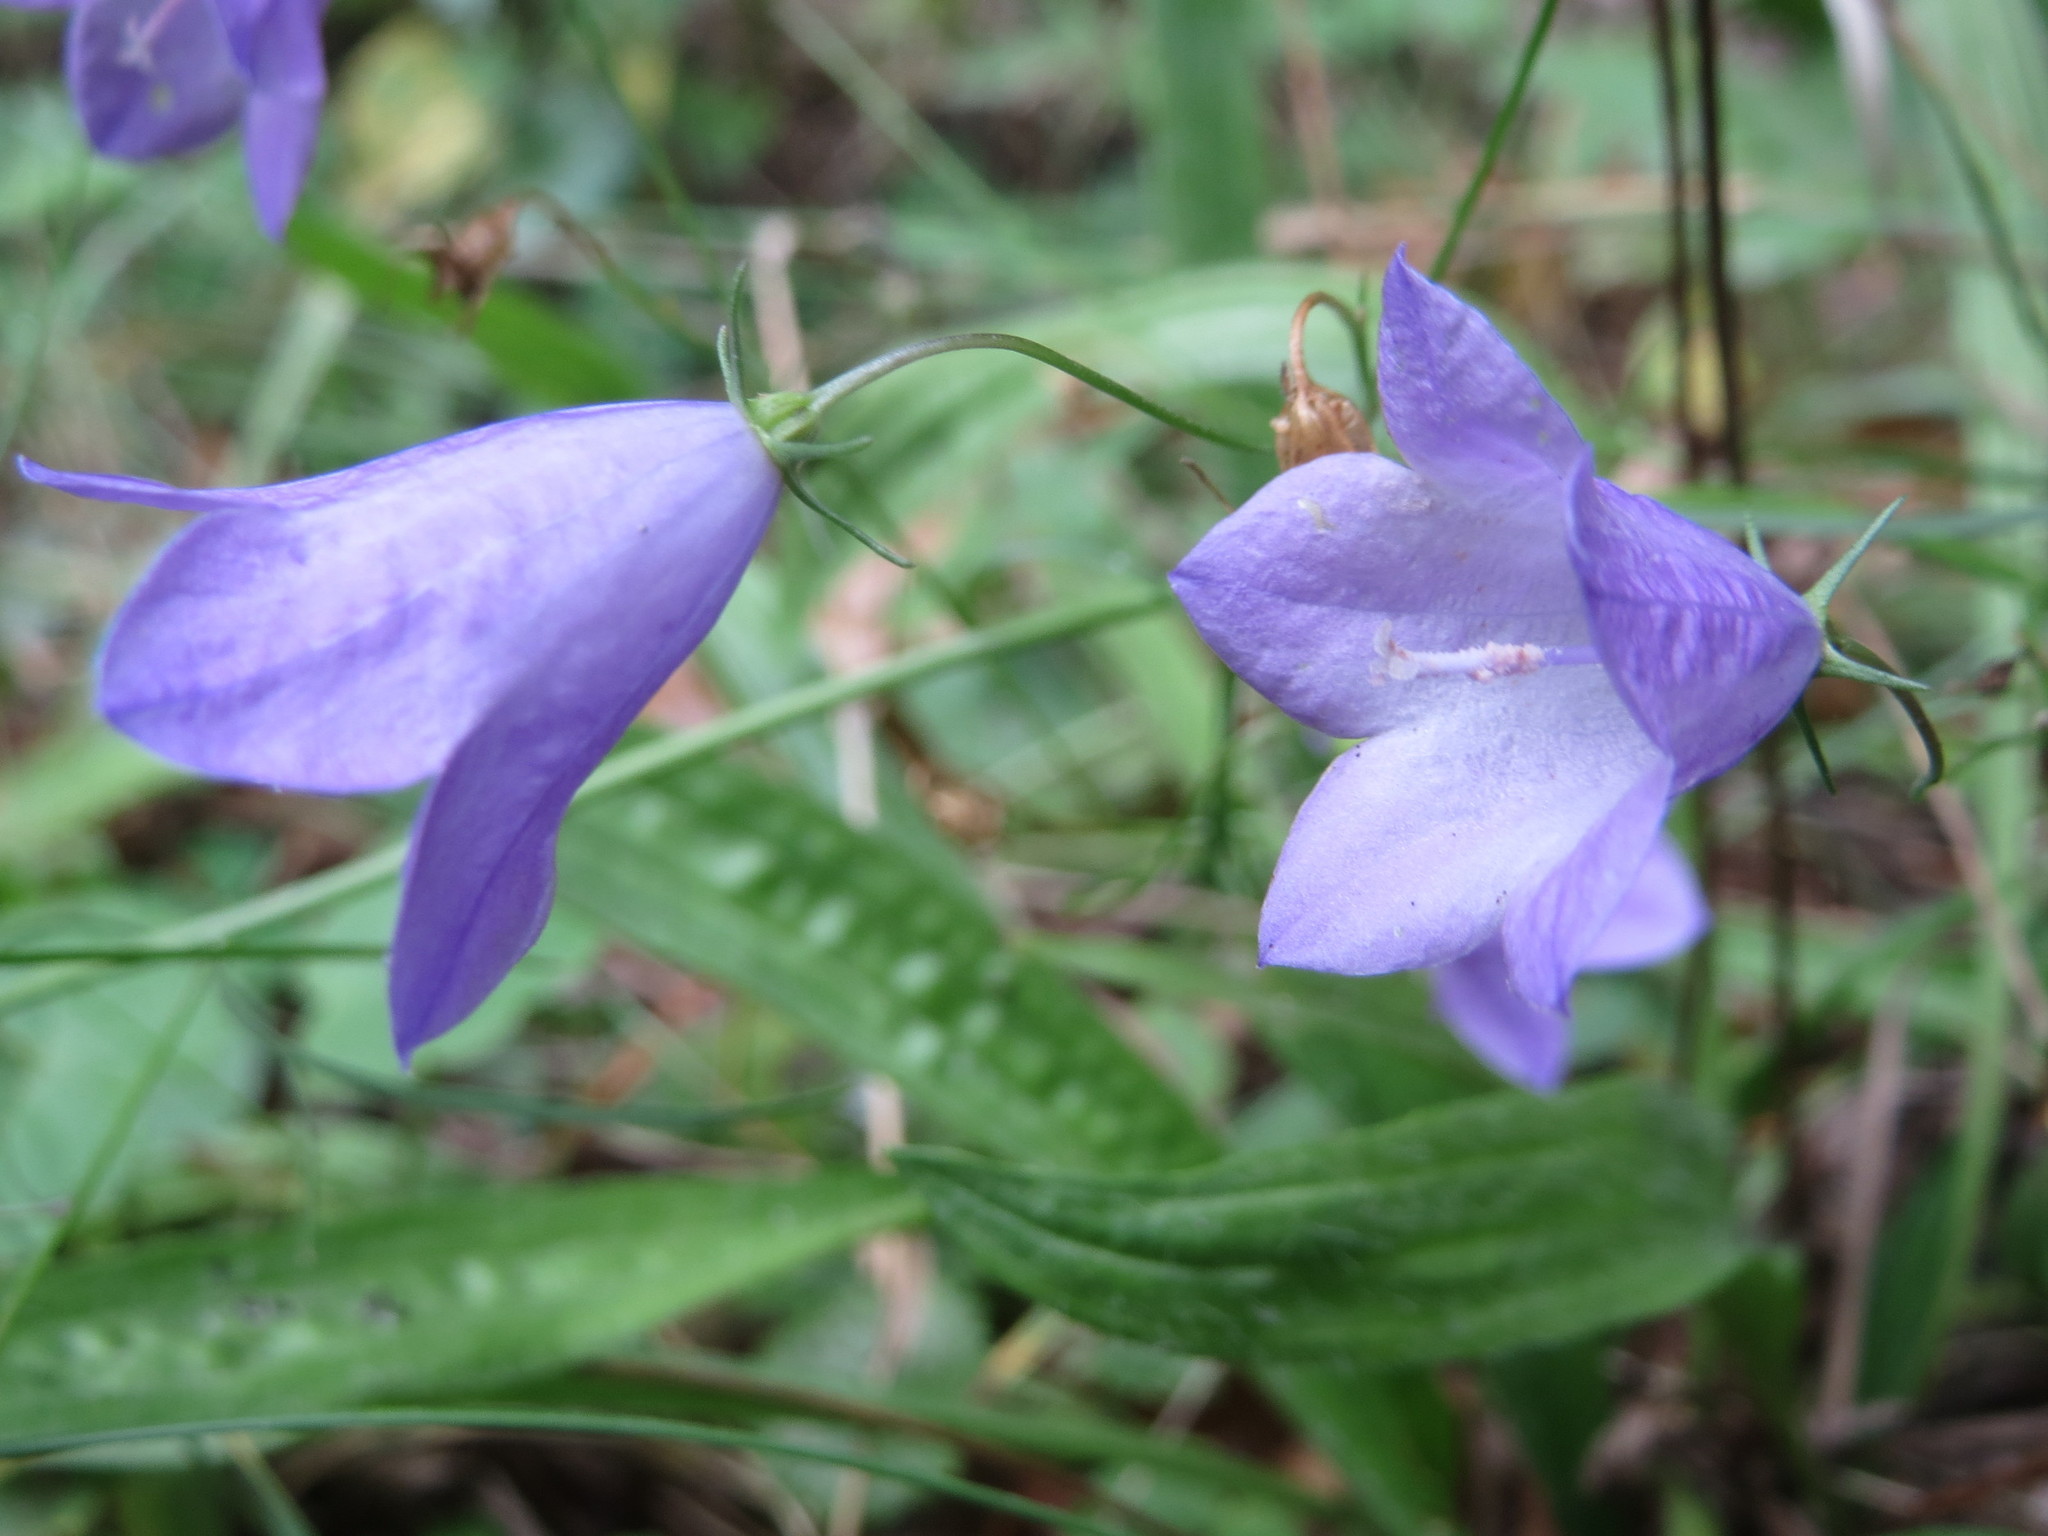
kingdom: Plantae
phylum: Tracheophyta
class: Magnoliopsida
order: Asterales
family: Campanulaceae
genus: Campanula
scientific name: Campanula rotundifolia
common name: Harebell
